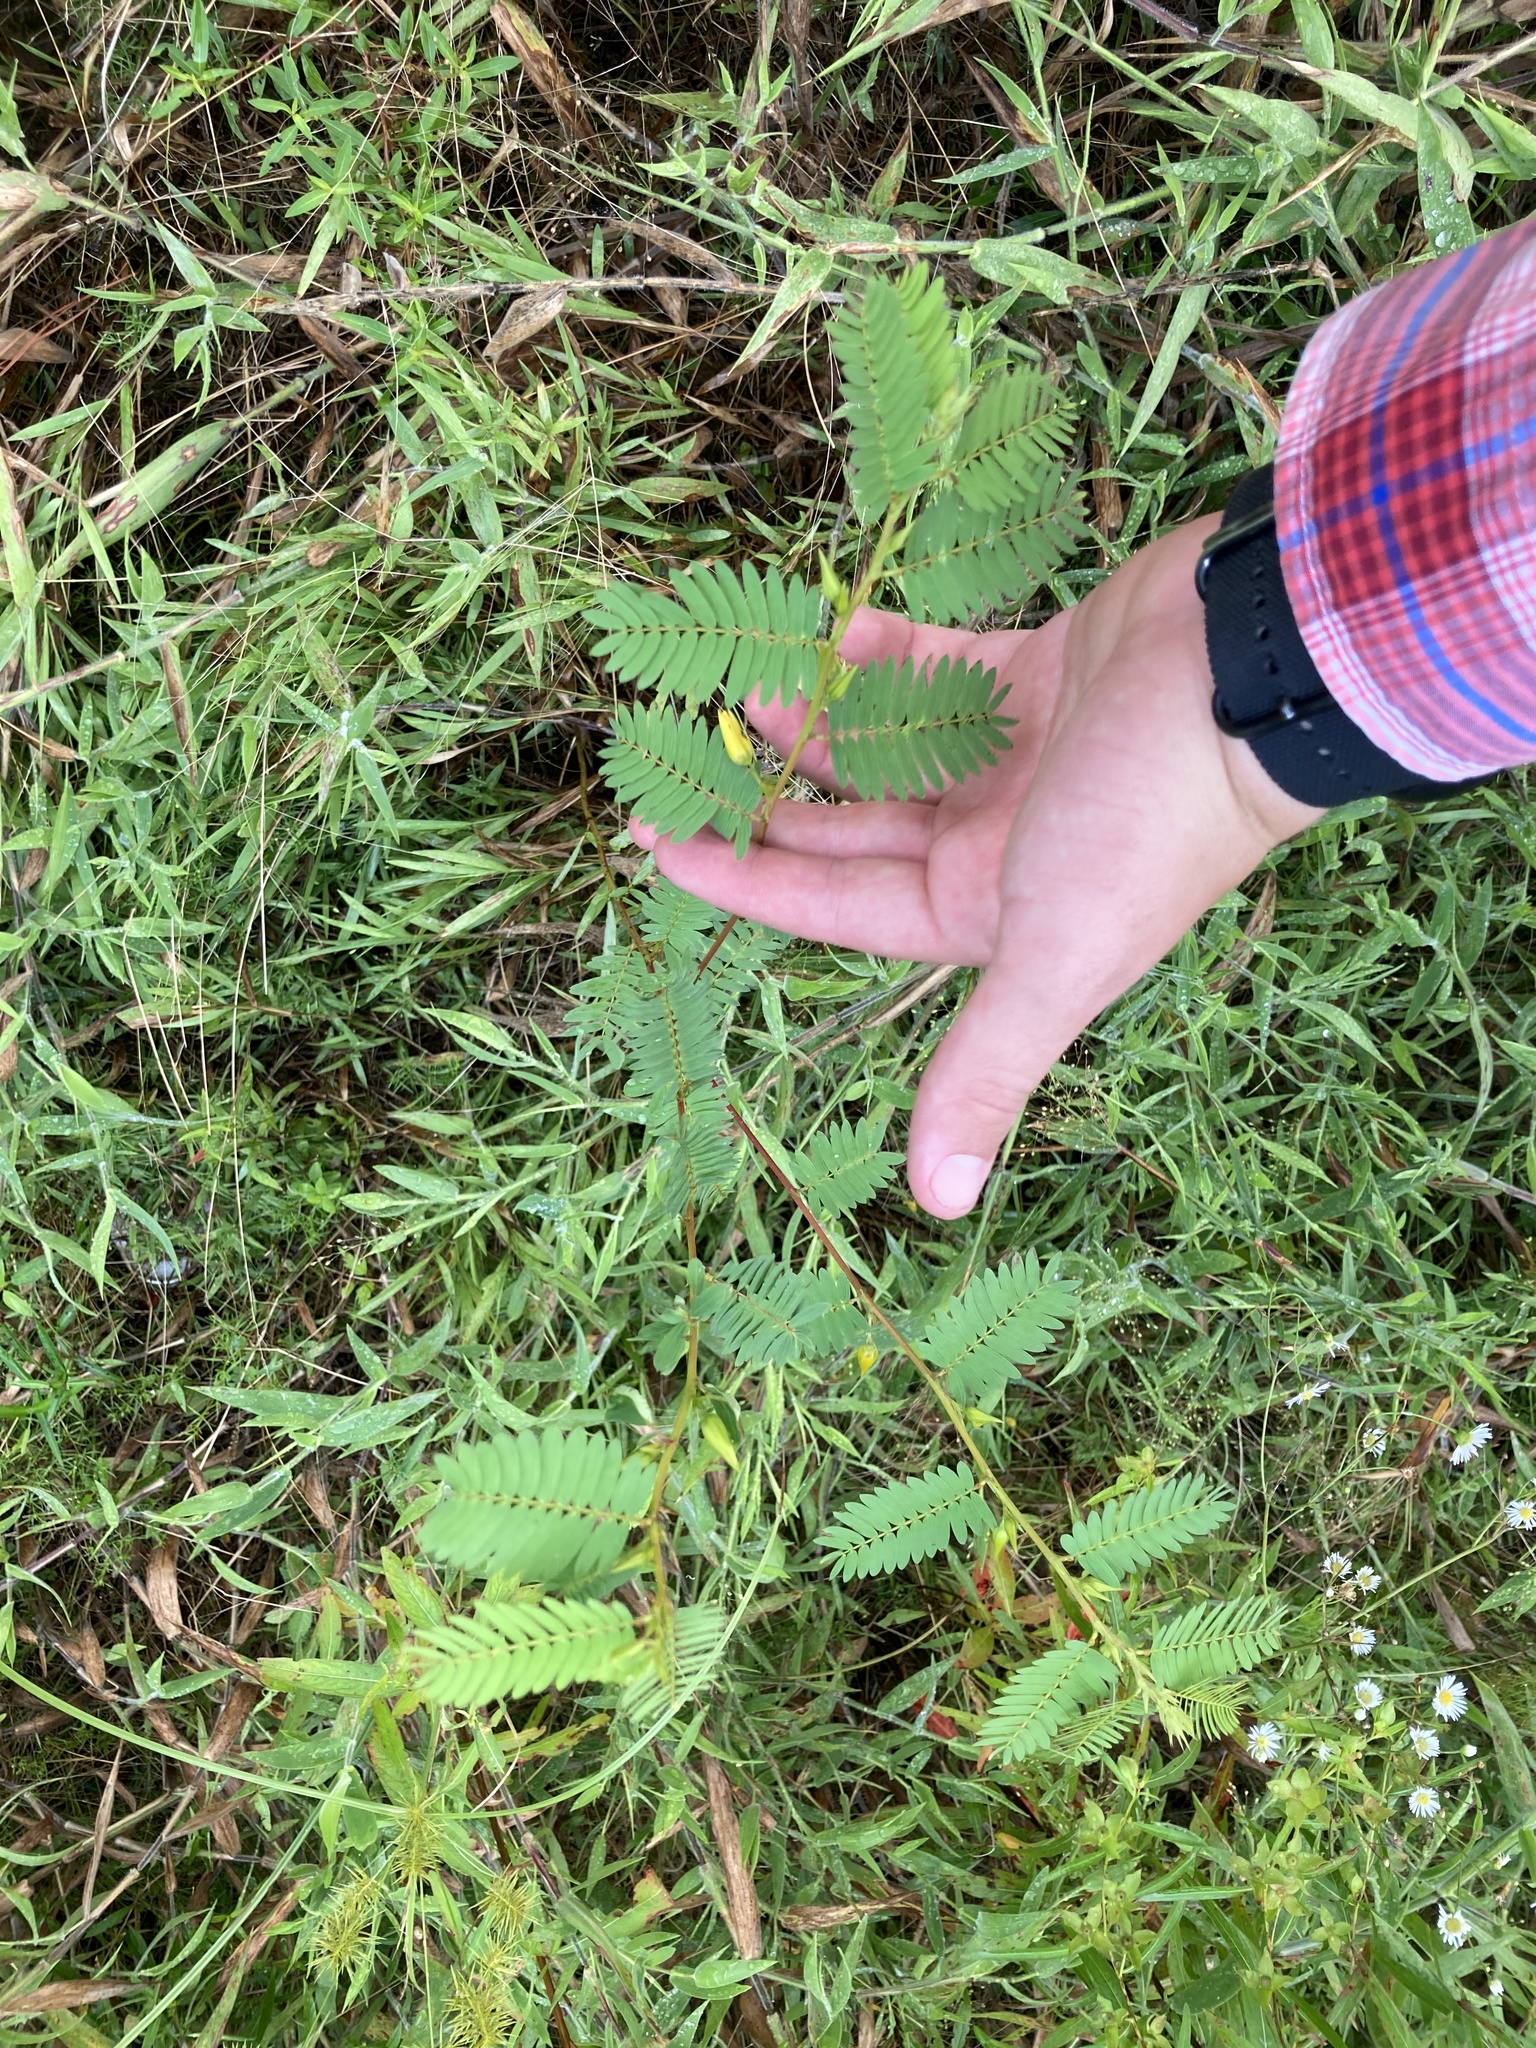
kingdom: Plantae
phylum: Tracheophyta
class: Magnoliopsida
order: Fabales
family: Fabaceae
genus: Chamaecrista
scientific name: Chamaecrista fasciculata
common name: Golden cassia
